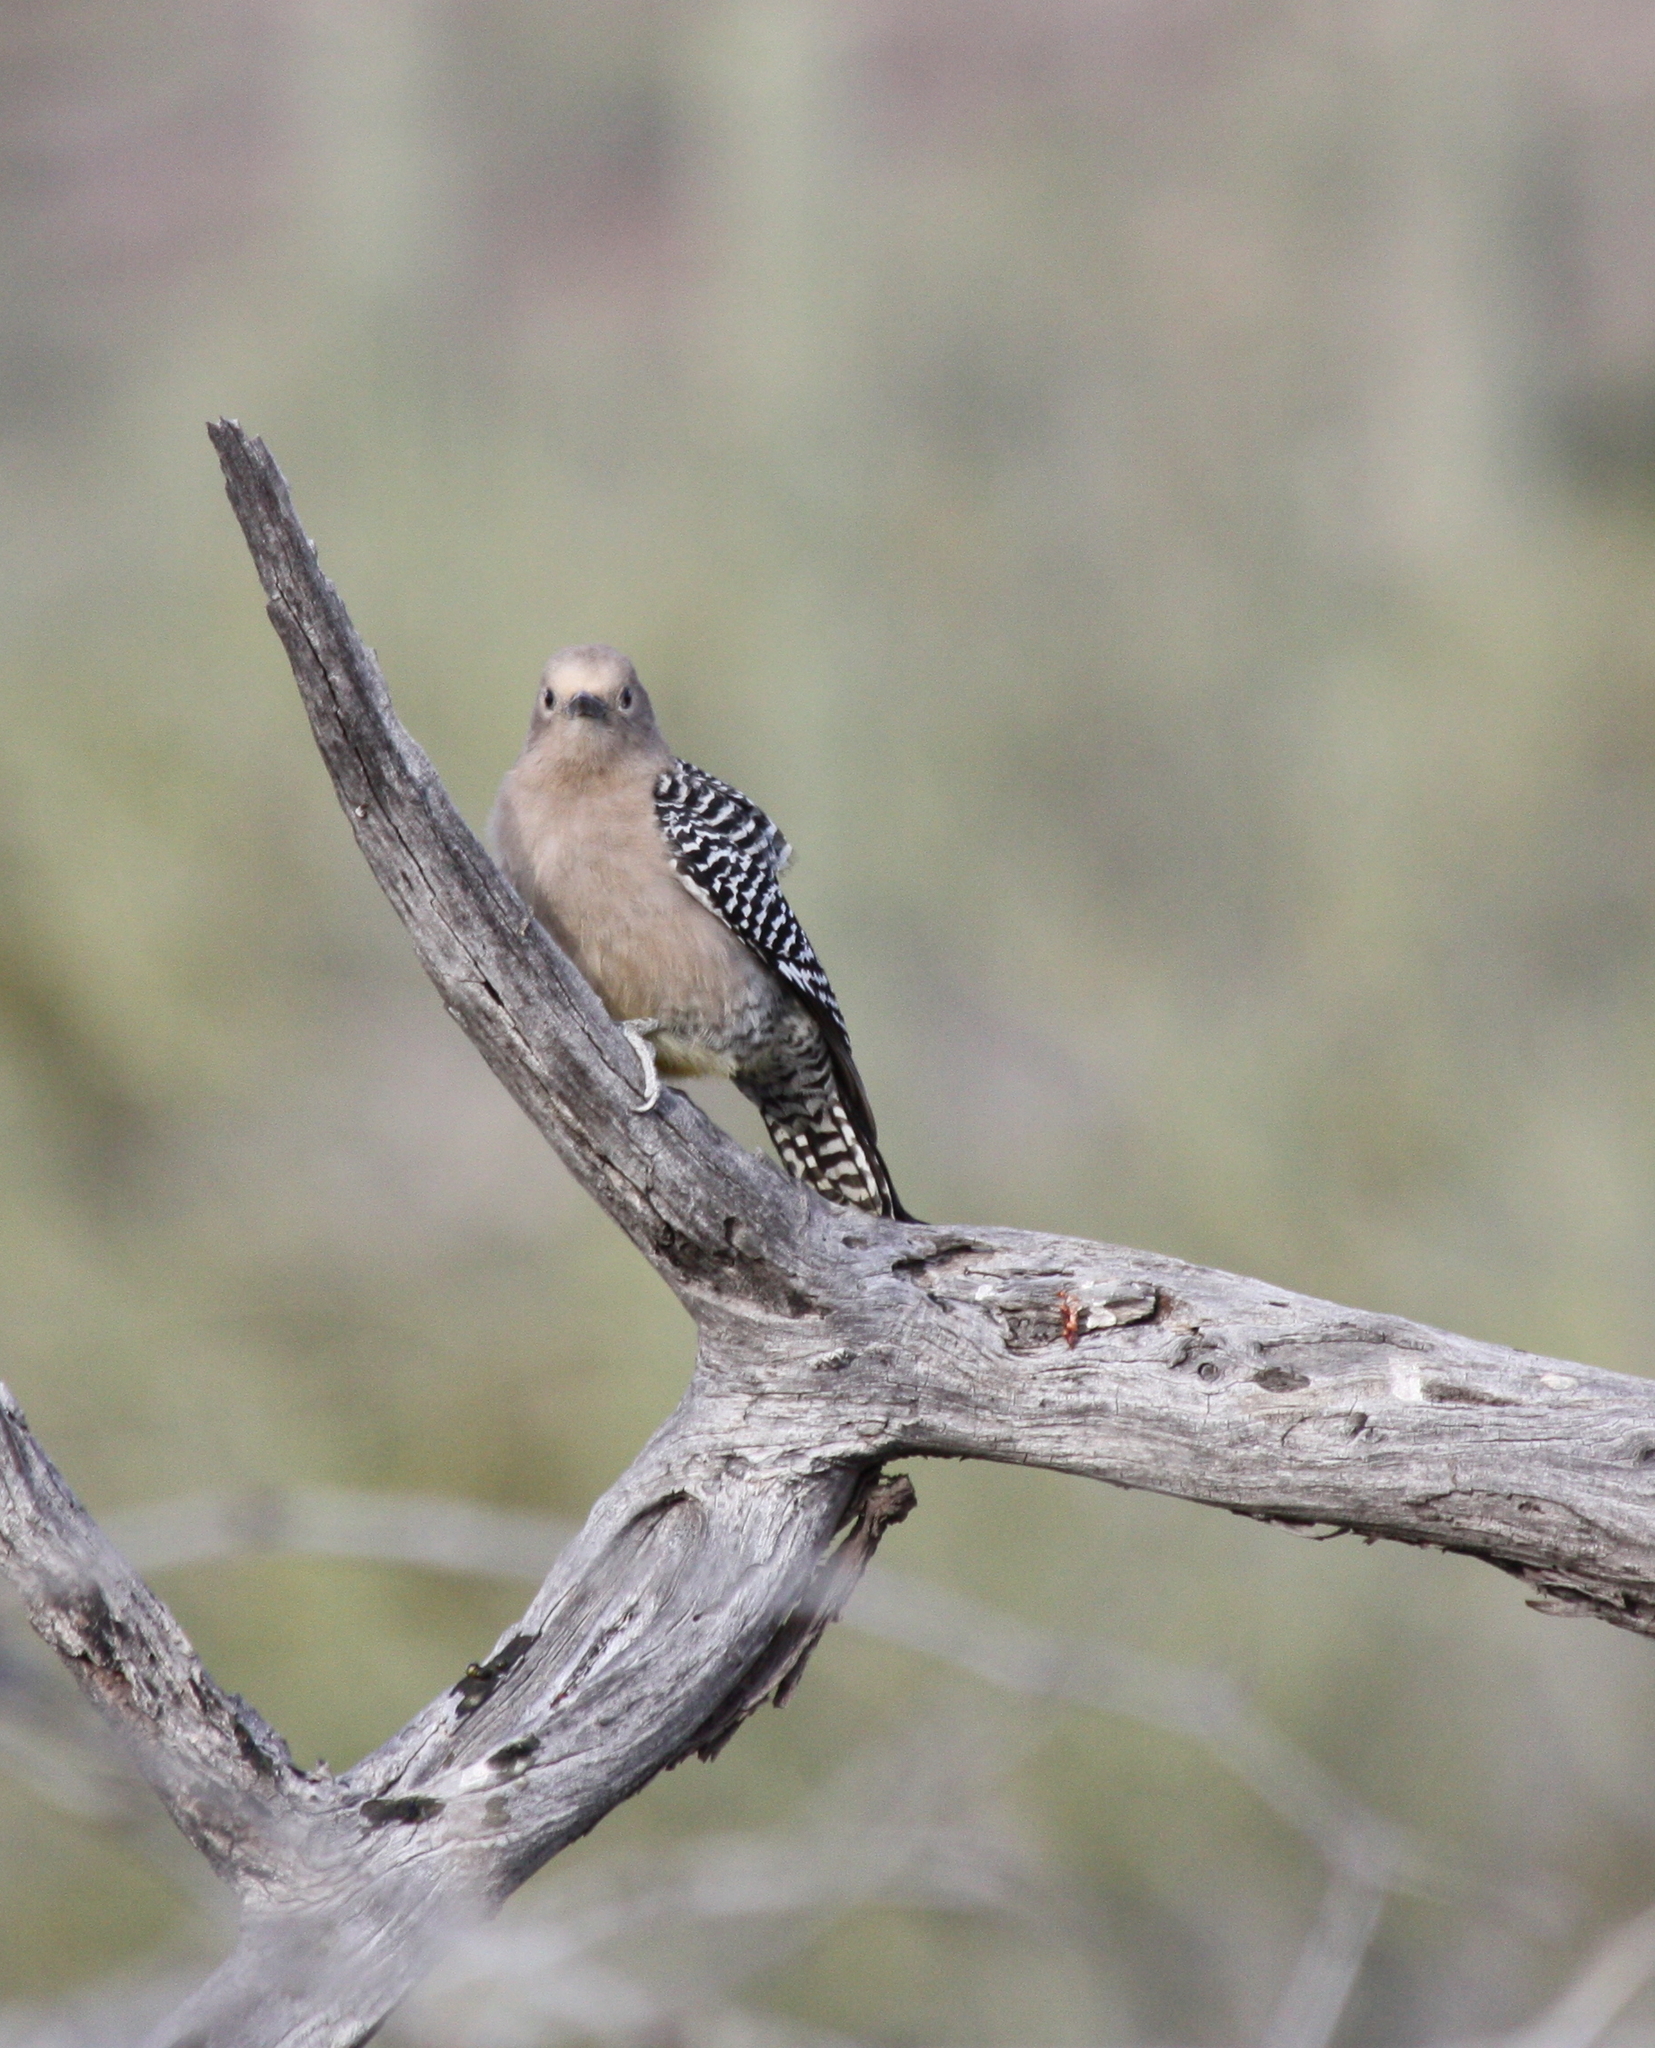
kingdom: Animalia
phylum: Chordata
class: Aves
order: Piciformes
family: Picidae
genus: Melanerpes
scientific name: Melanerpes uropygialis
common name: Gila woodpecker
